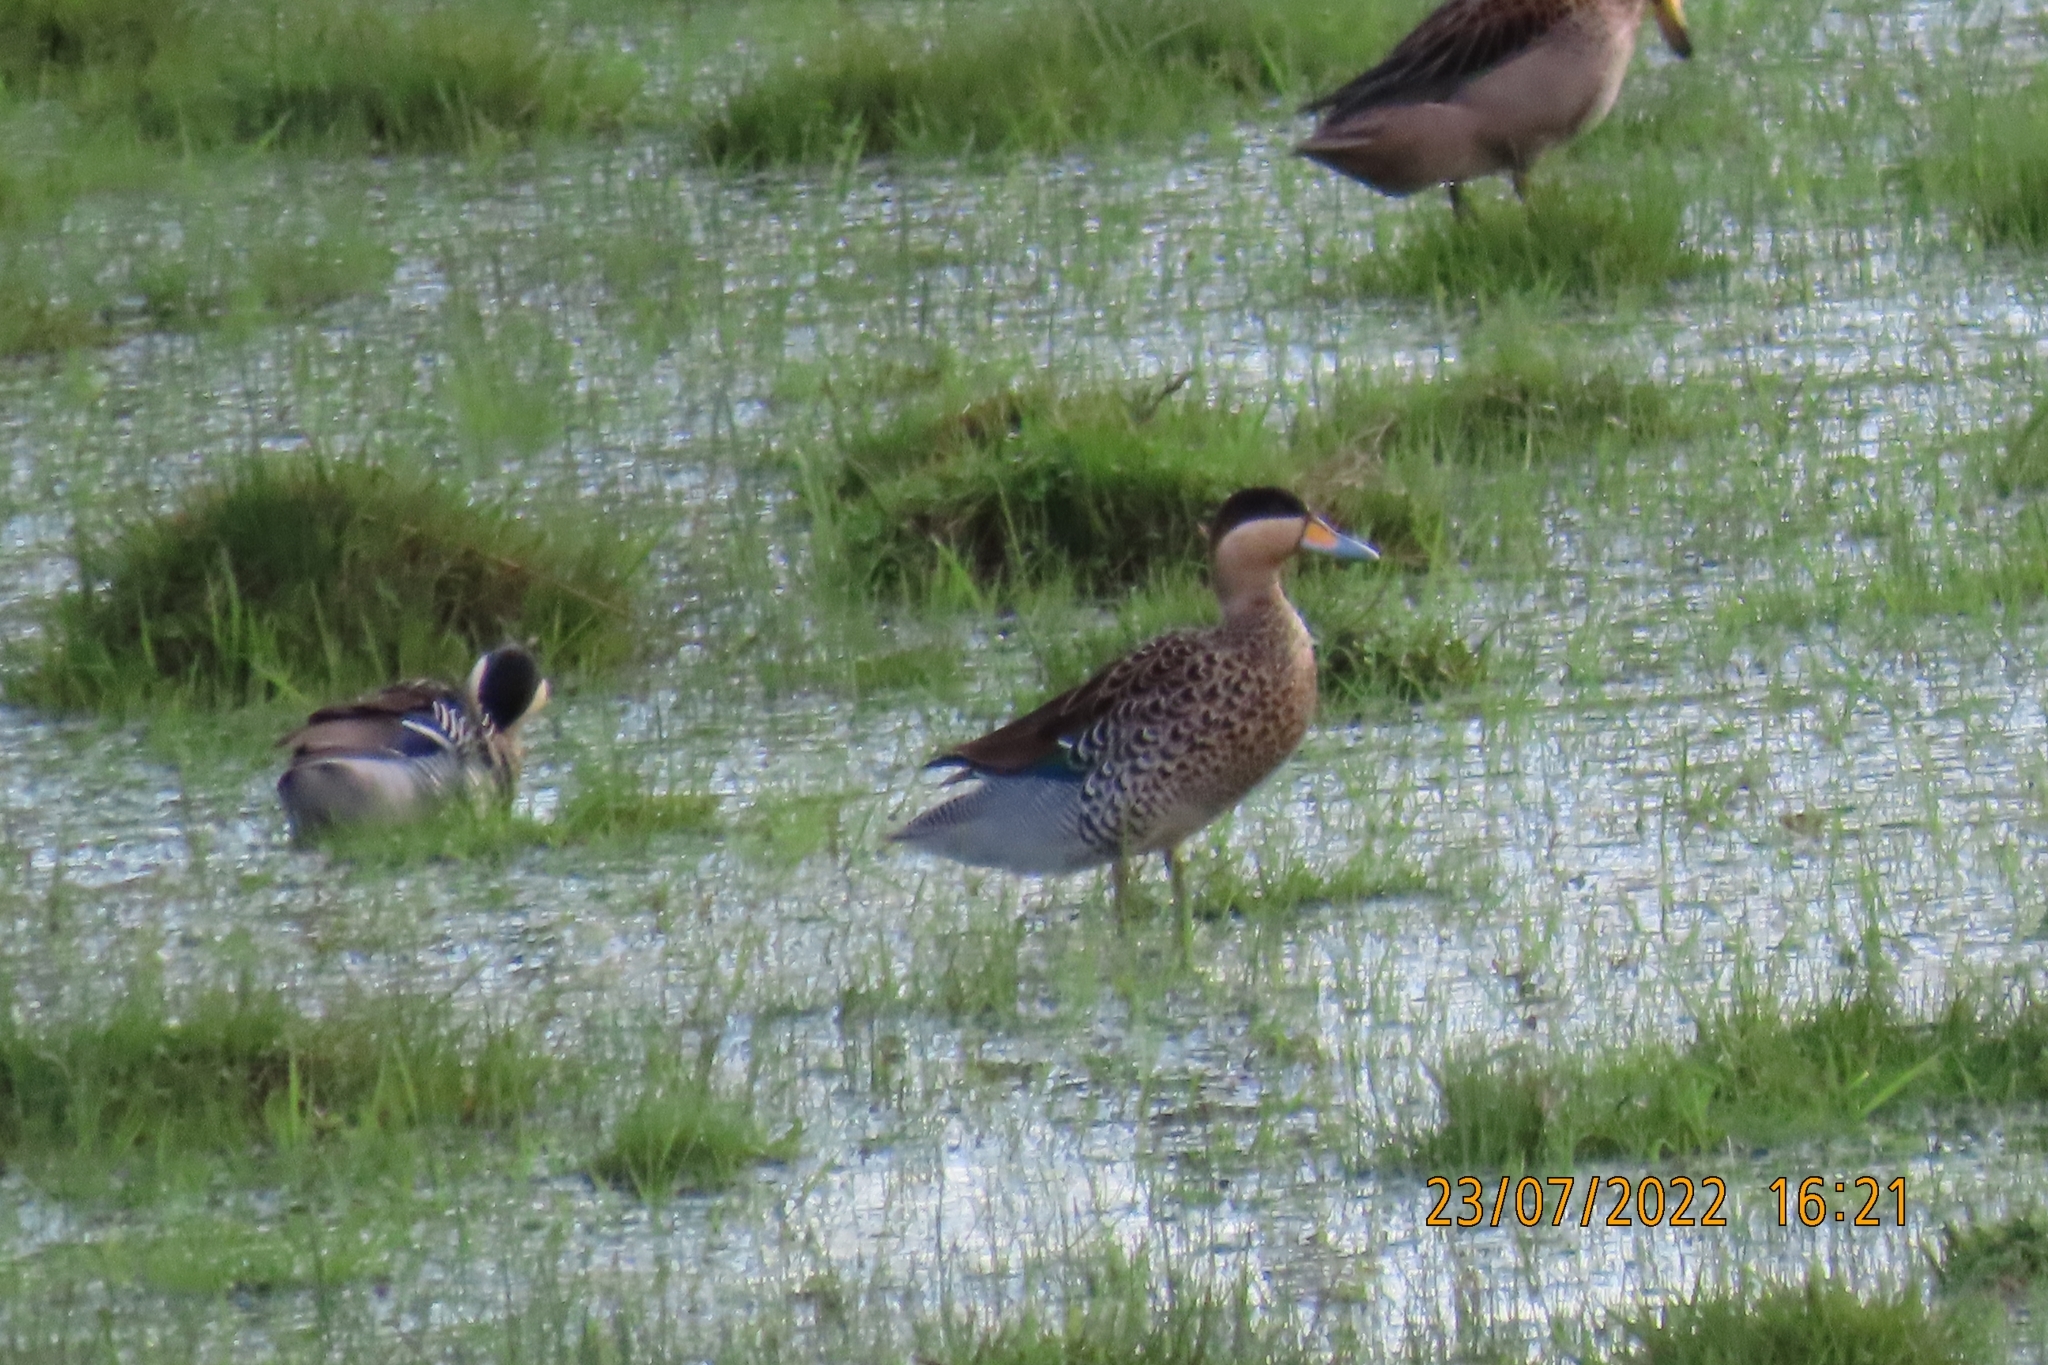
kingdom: Animalia
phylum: Chordata
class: Aves
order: Anseriformes
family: Anatidae
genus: Spatula
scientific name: Spatula versicolor
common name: Silver teal
